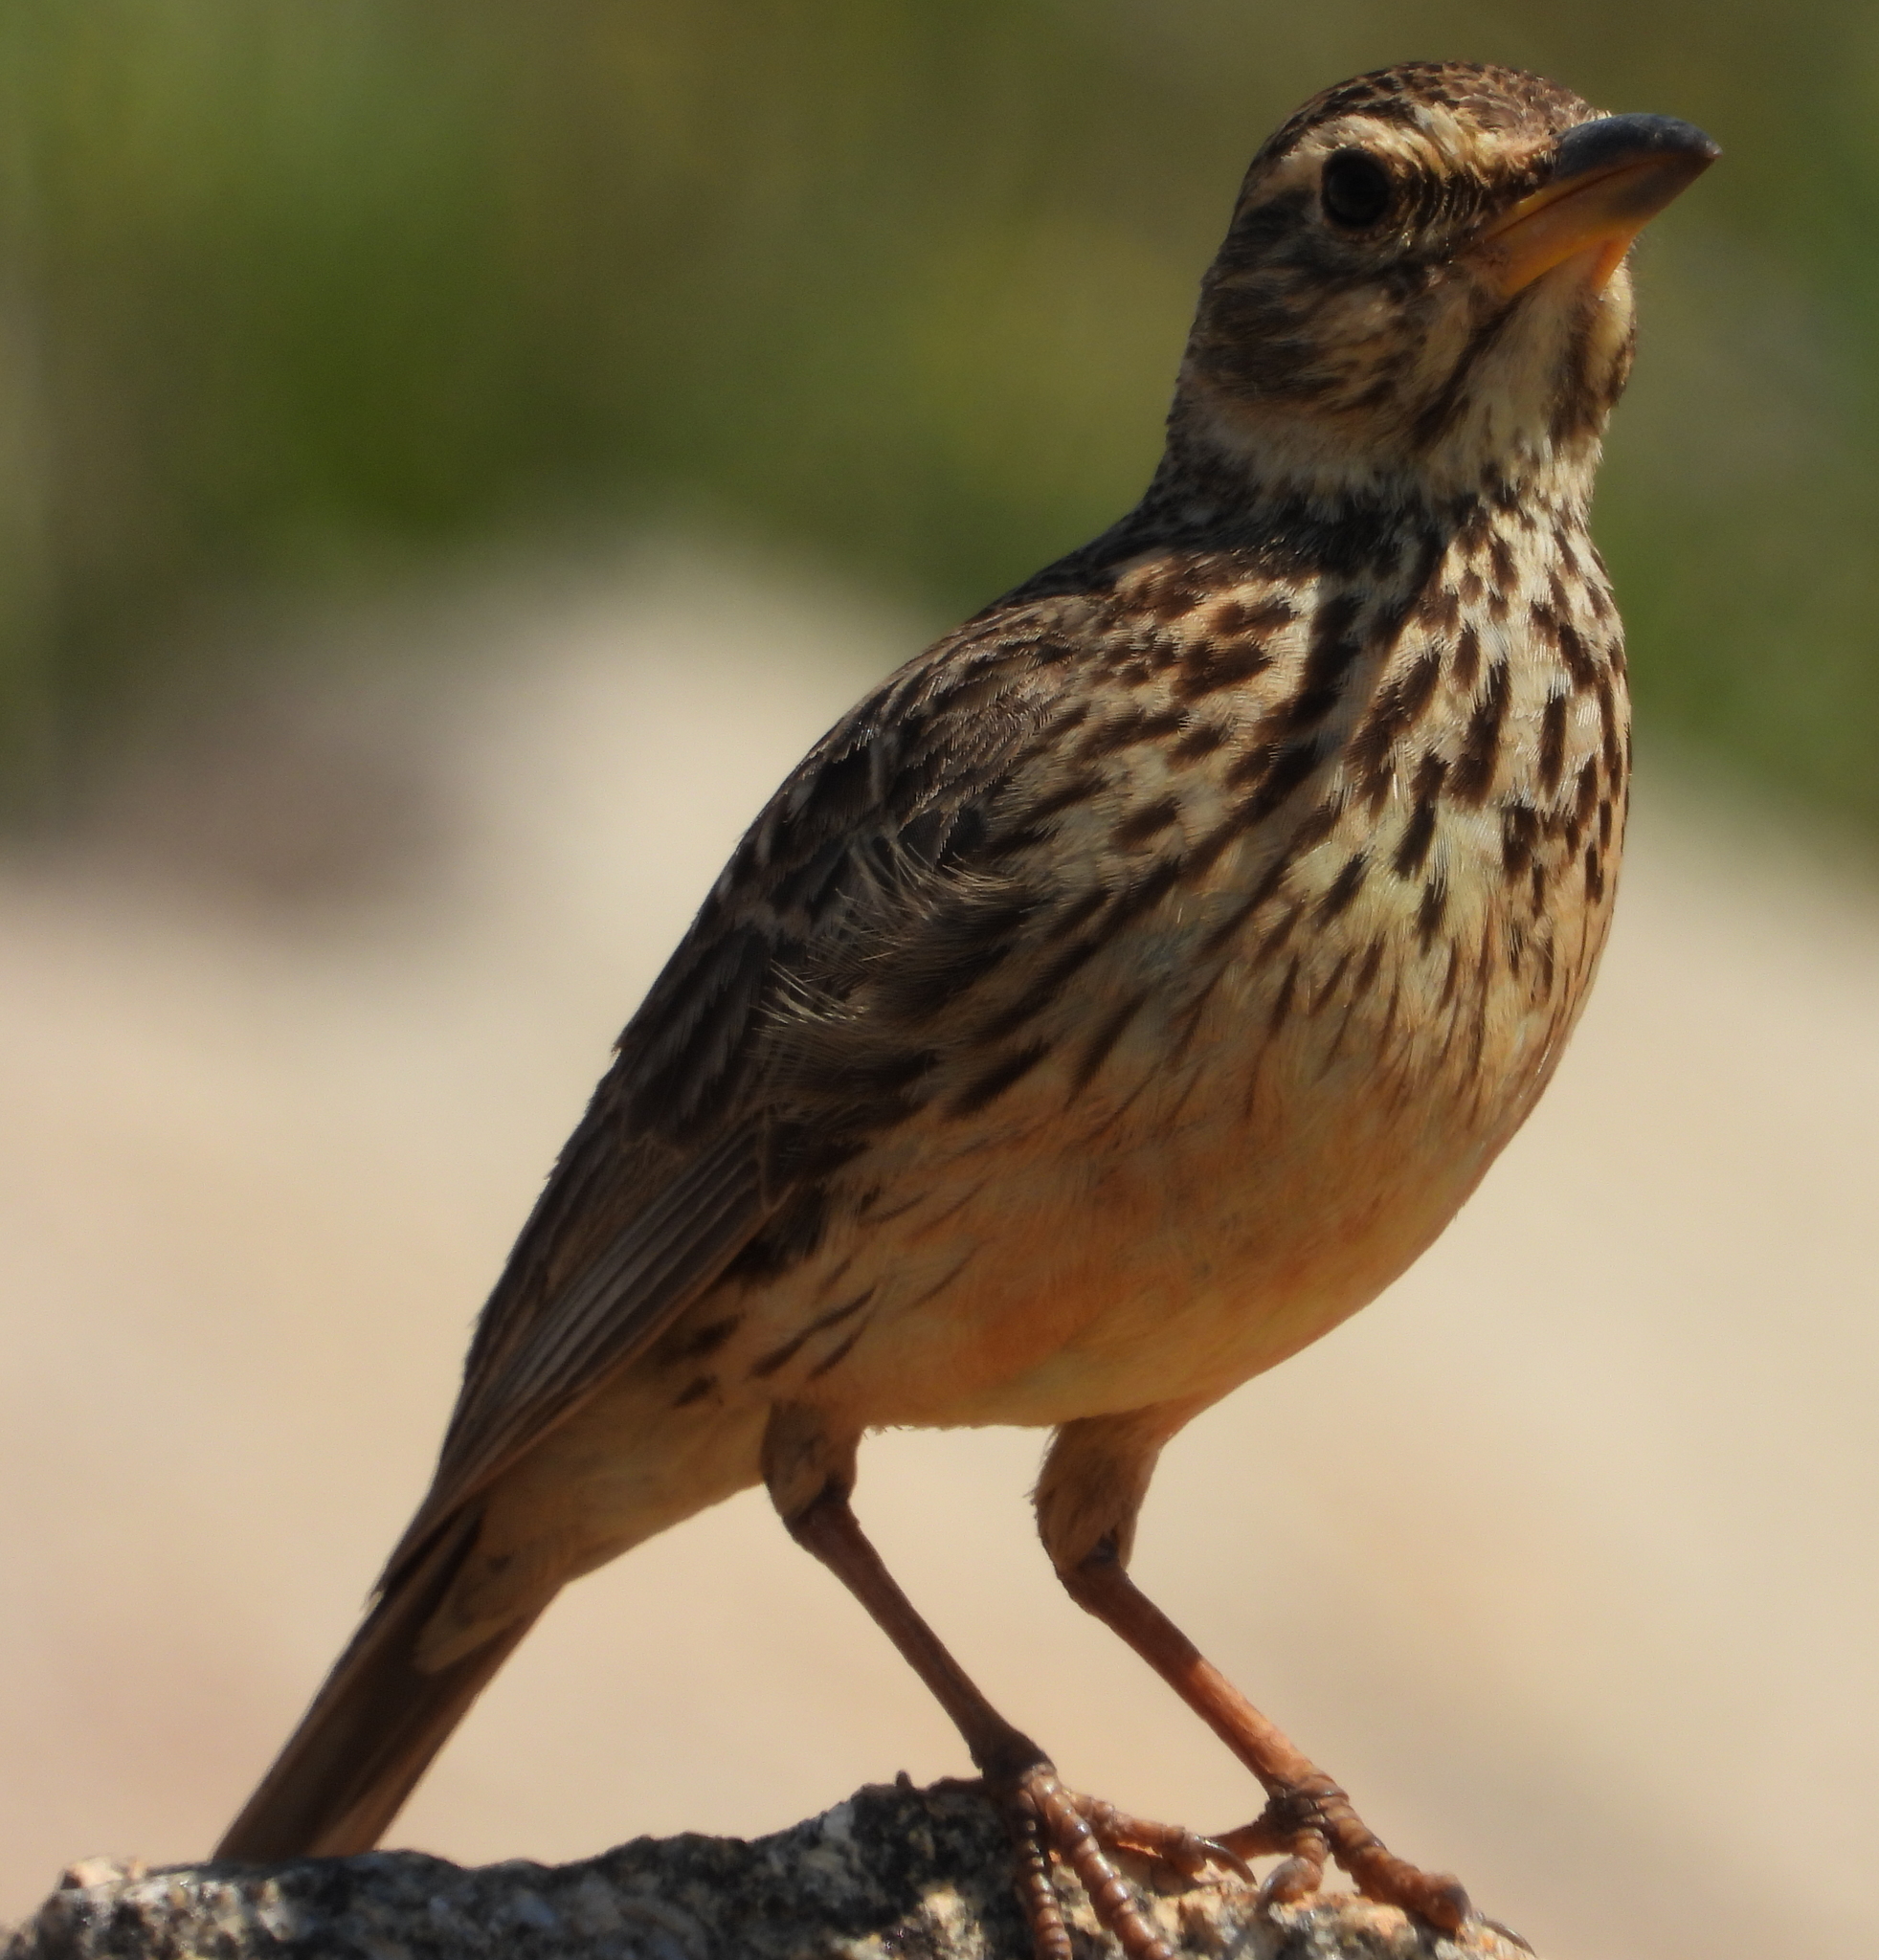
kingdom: Animalia
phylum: Chordata
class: Aves
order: Passeriformes
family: Alaudidae
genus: Galerida
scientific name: Galerida magnirostris
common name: Large-billed lark
